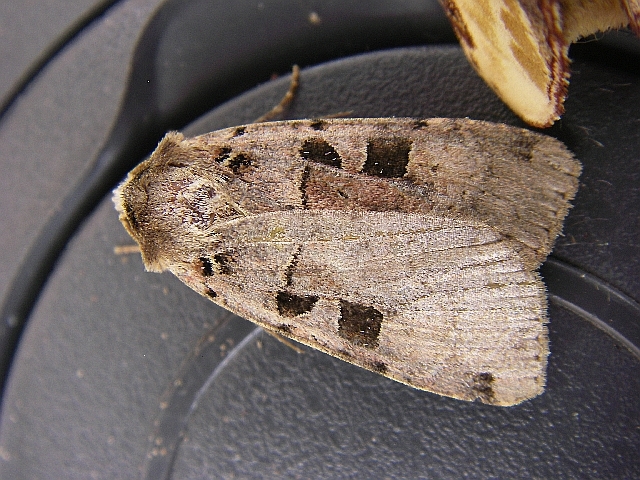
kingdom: Animalia
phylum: Arthropoda
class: Insecta
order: Lepidoptera
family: Noctuidae
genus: Xestia
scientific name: Xestia triangulum
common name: Double square-spot
